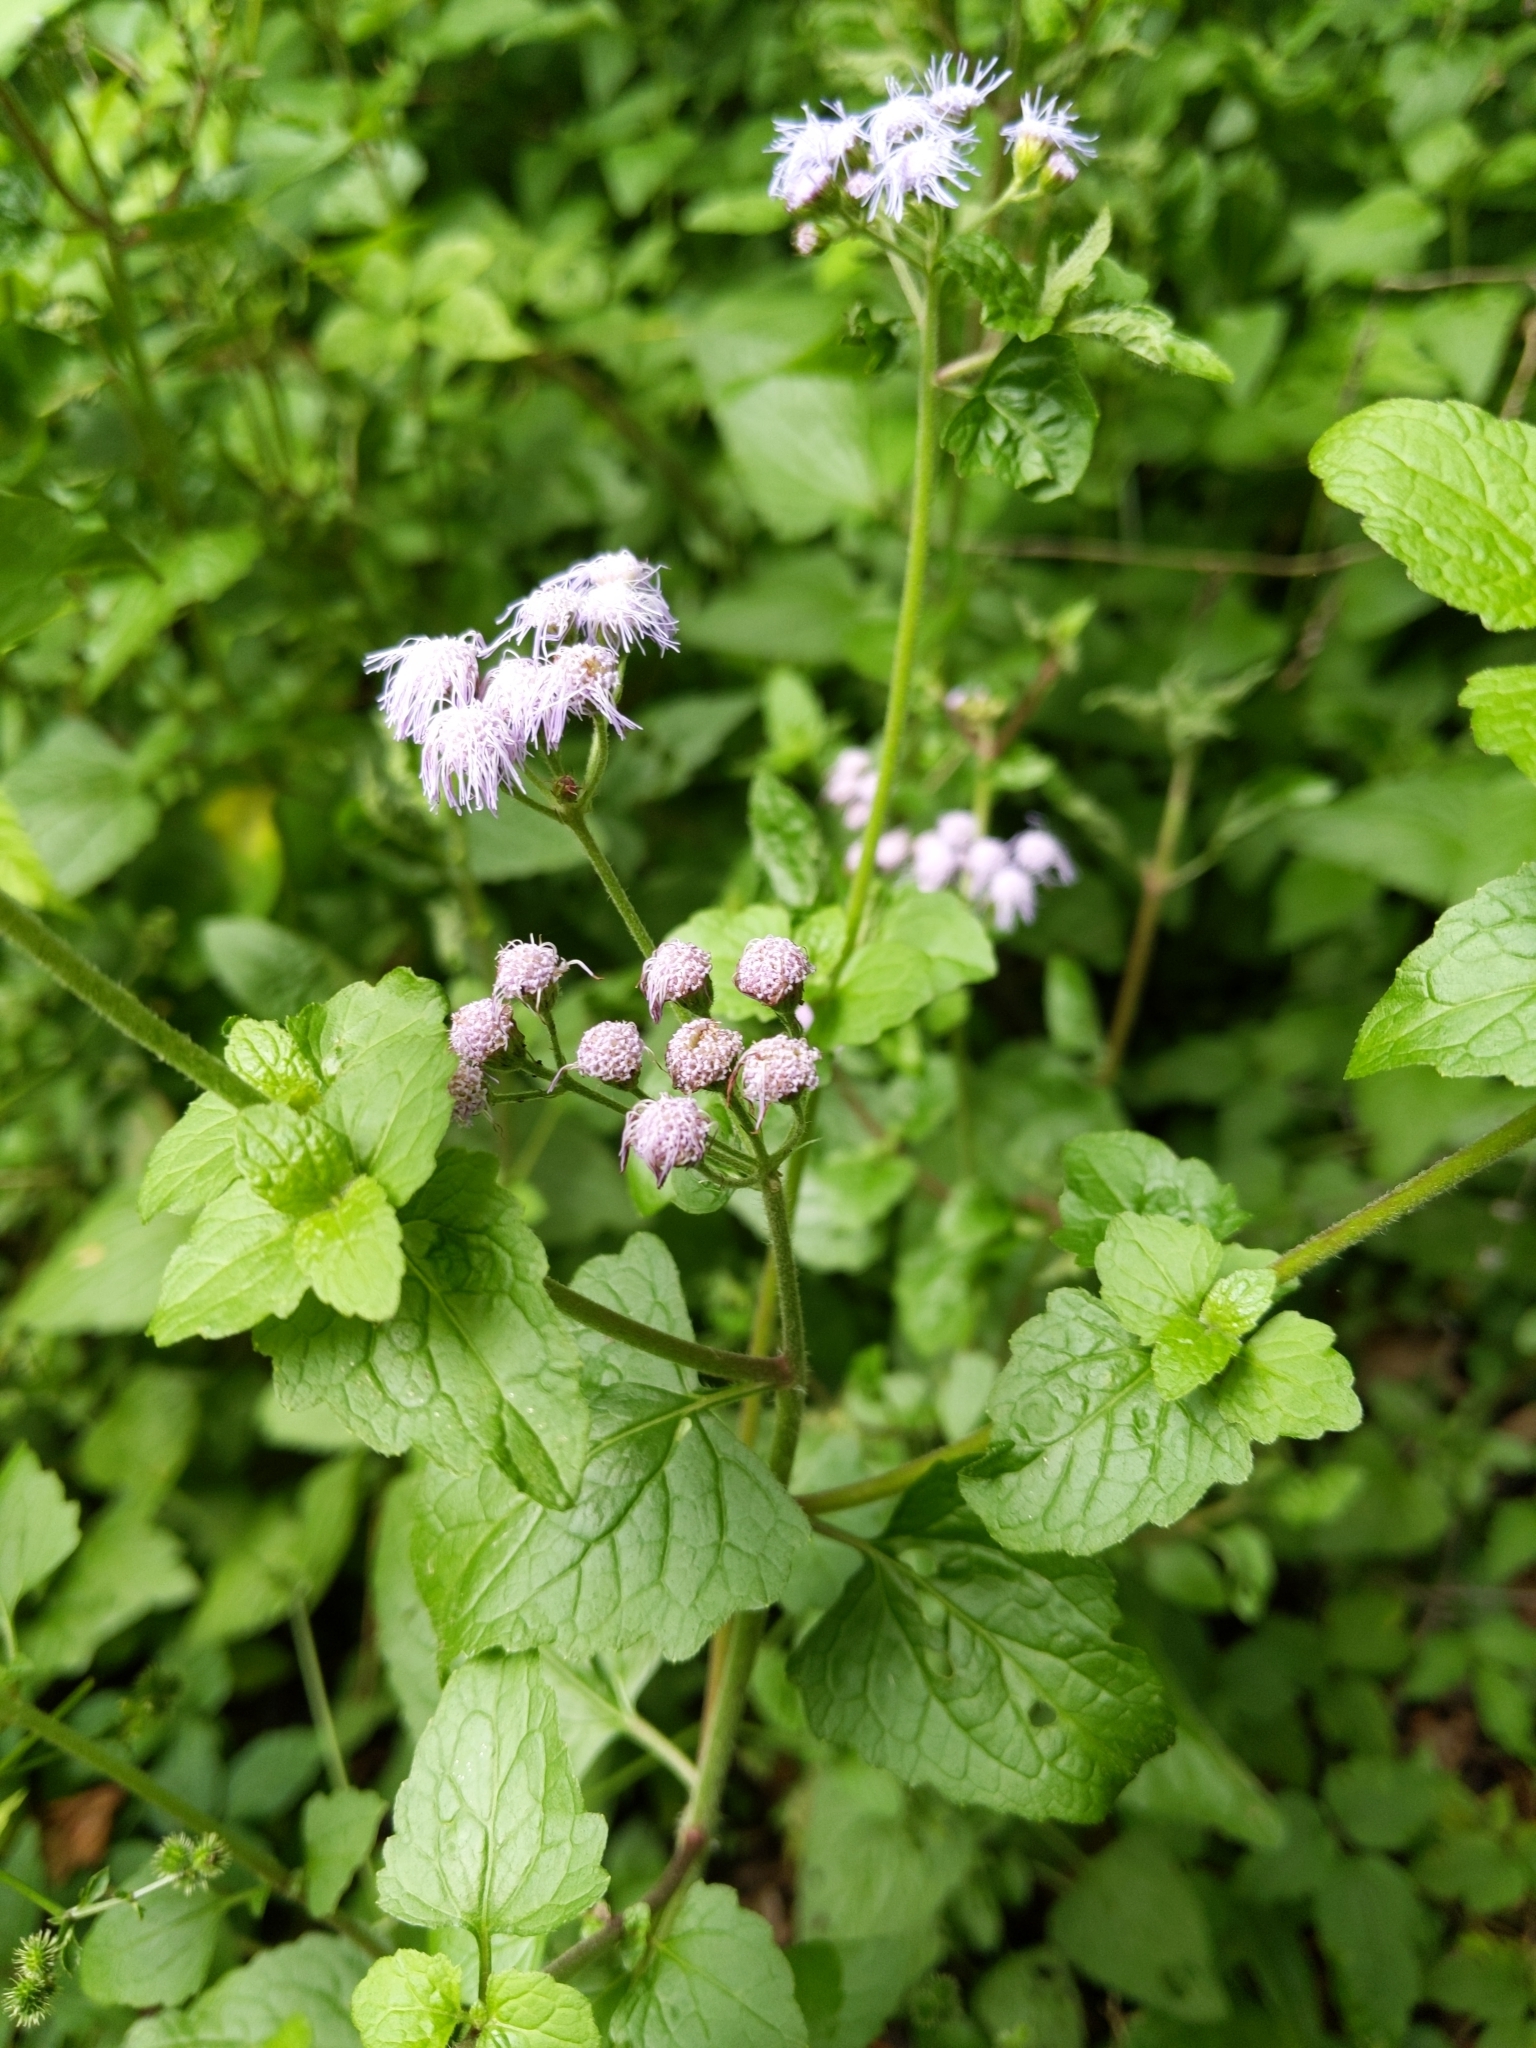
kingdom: Plantae
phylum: Tracheophyta
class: Magnoliopsida
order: Asterales
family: Asteraceae
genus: Conoclinium
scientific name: Conoclinium coelestinum
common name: Blue mistflower
